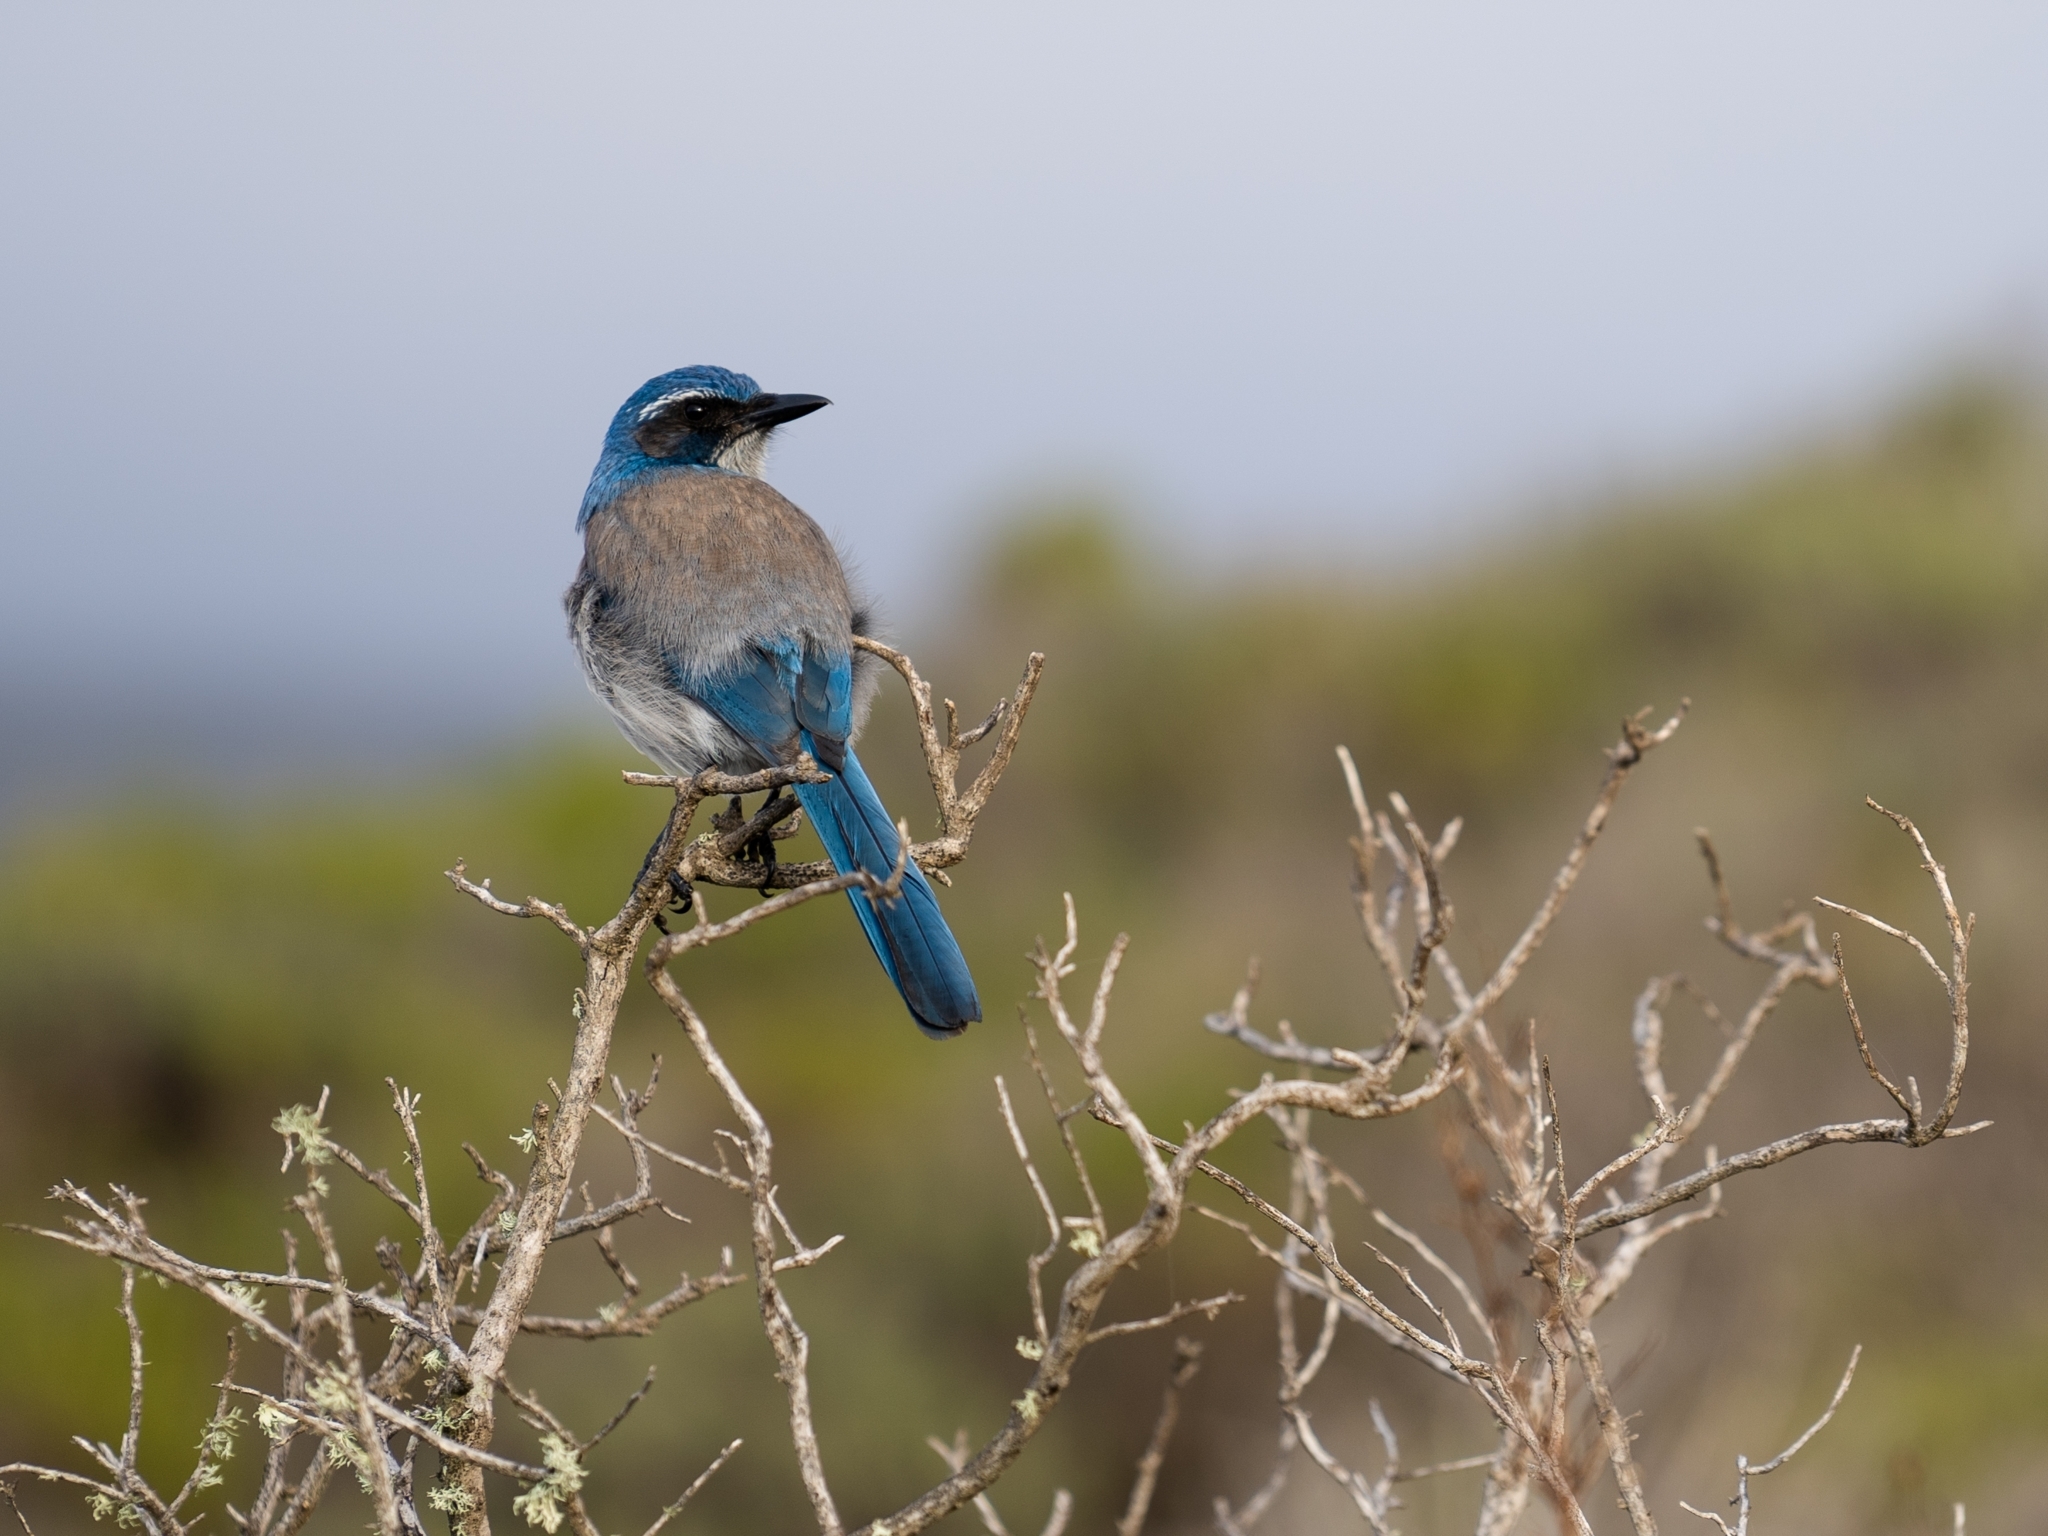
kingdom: Animalia
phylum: Chordata
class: Aves
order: Passeriformes
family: Corvidae
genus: Aphelocoma
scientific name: Aphelocoma californica
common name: California scrub-jay
